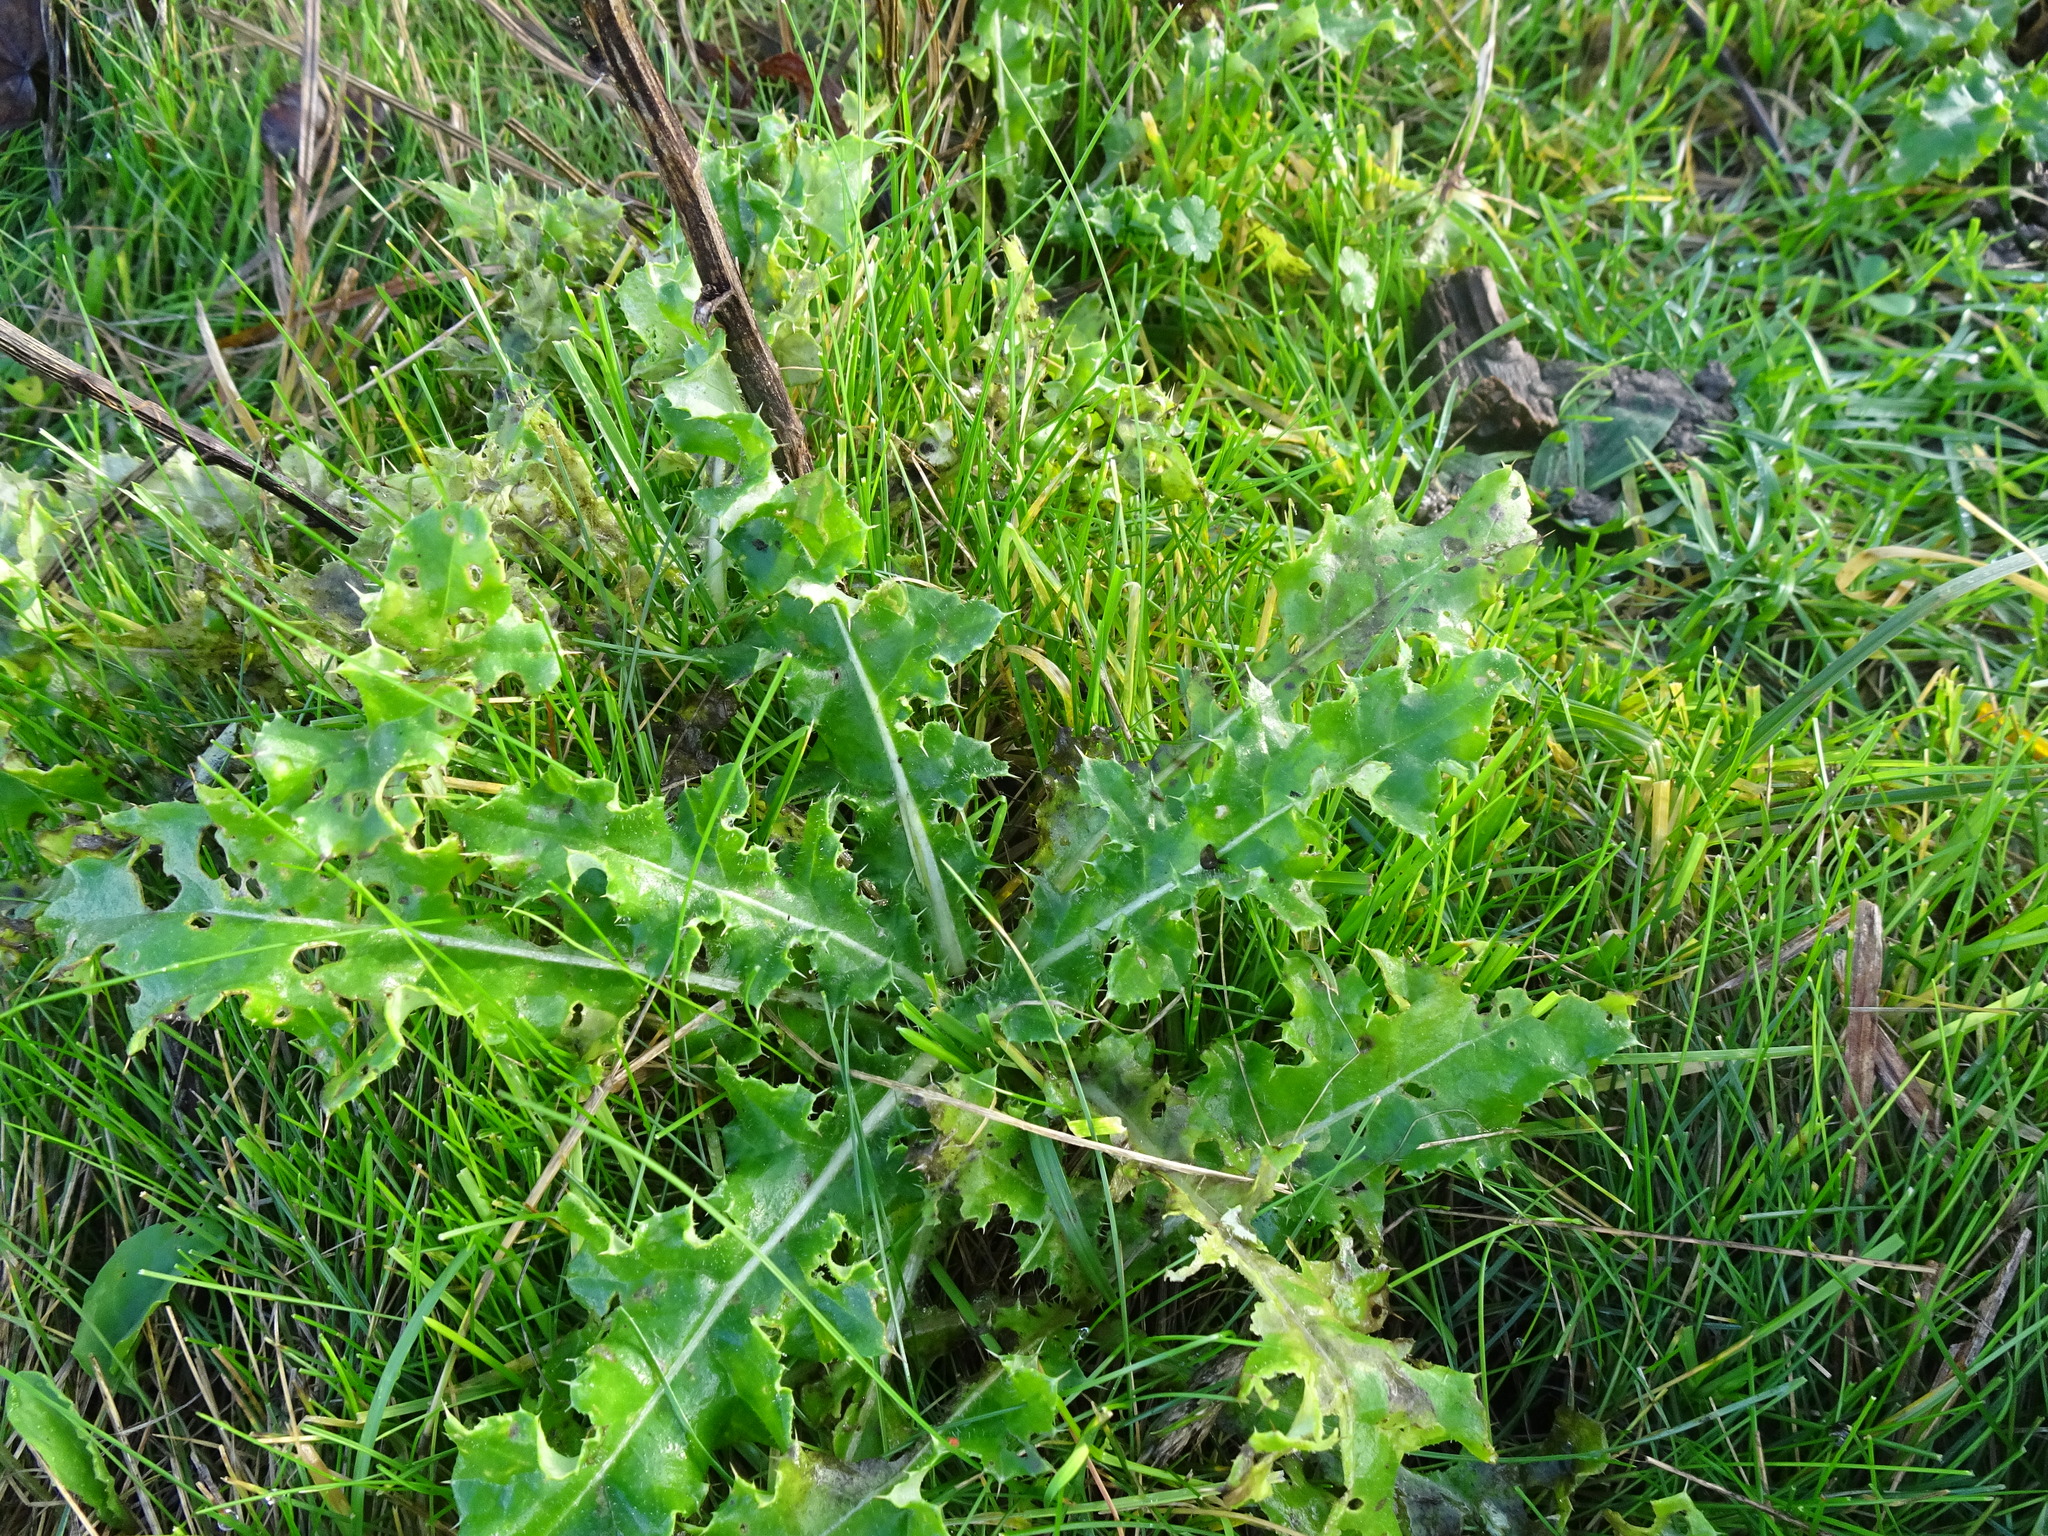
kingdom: Plantae
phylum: Tracheophyta
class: Magnoliopsida
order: Asterales
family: Asteraceae
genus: Cirsium
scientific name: Cirsium arvense
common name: Creeping thistle
